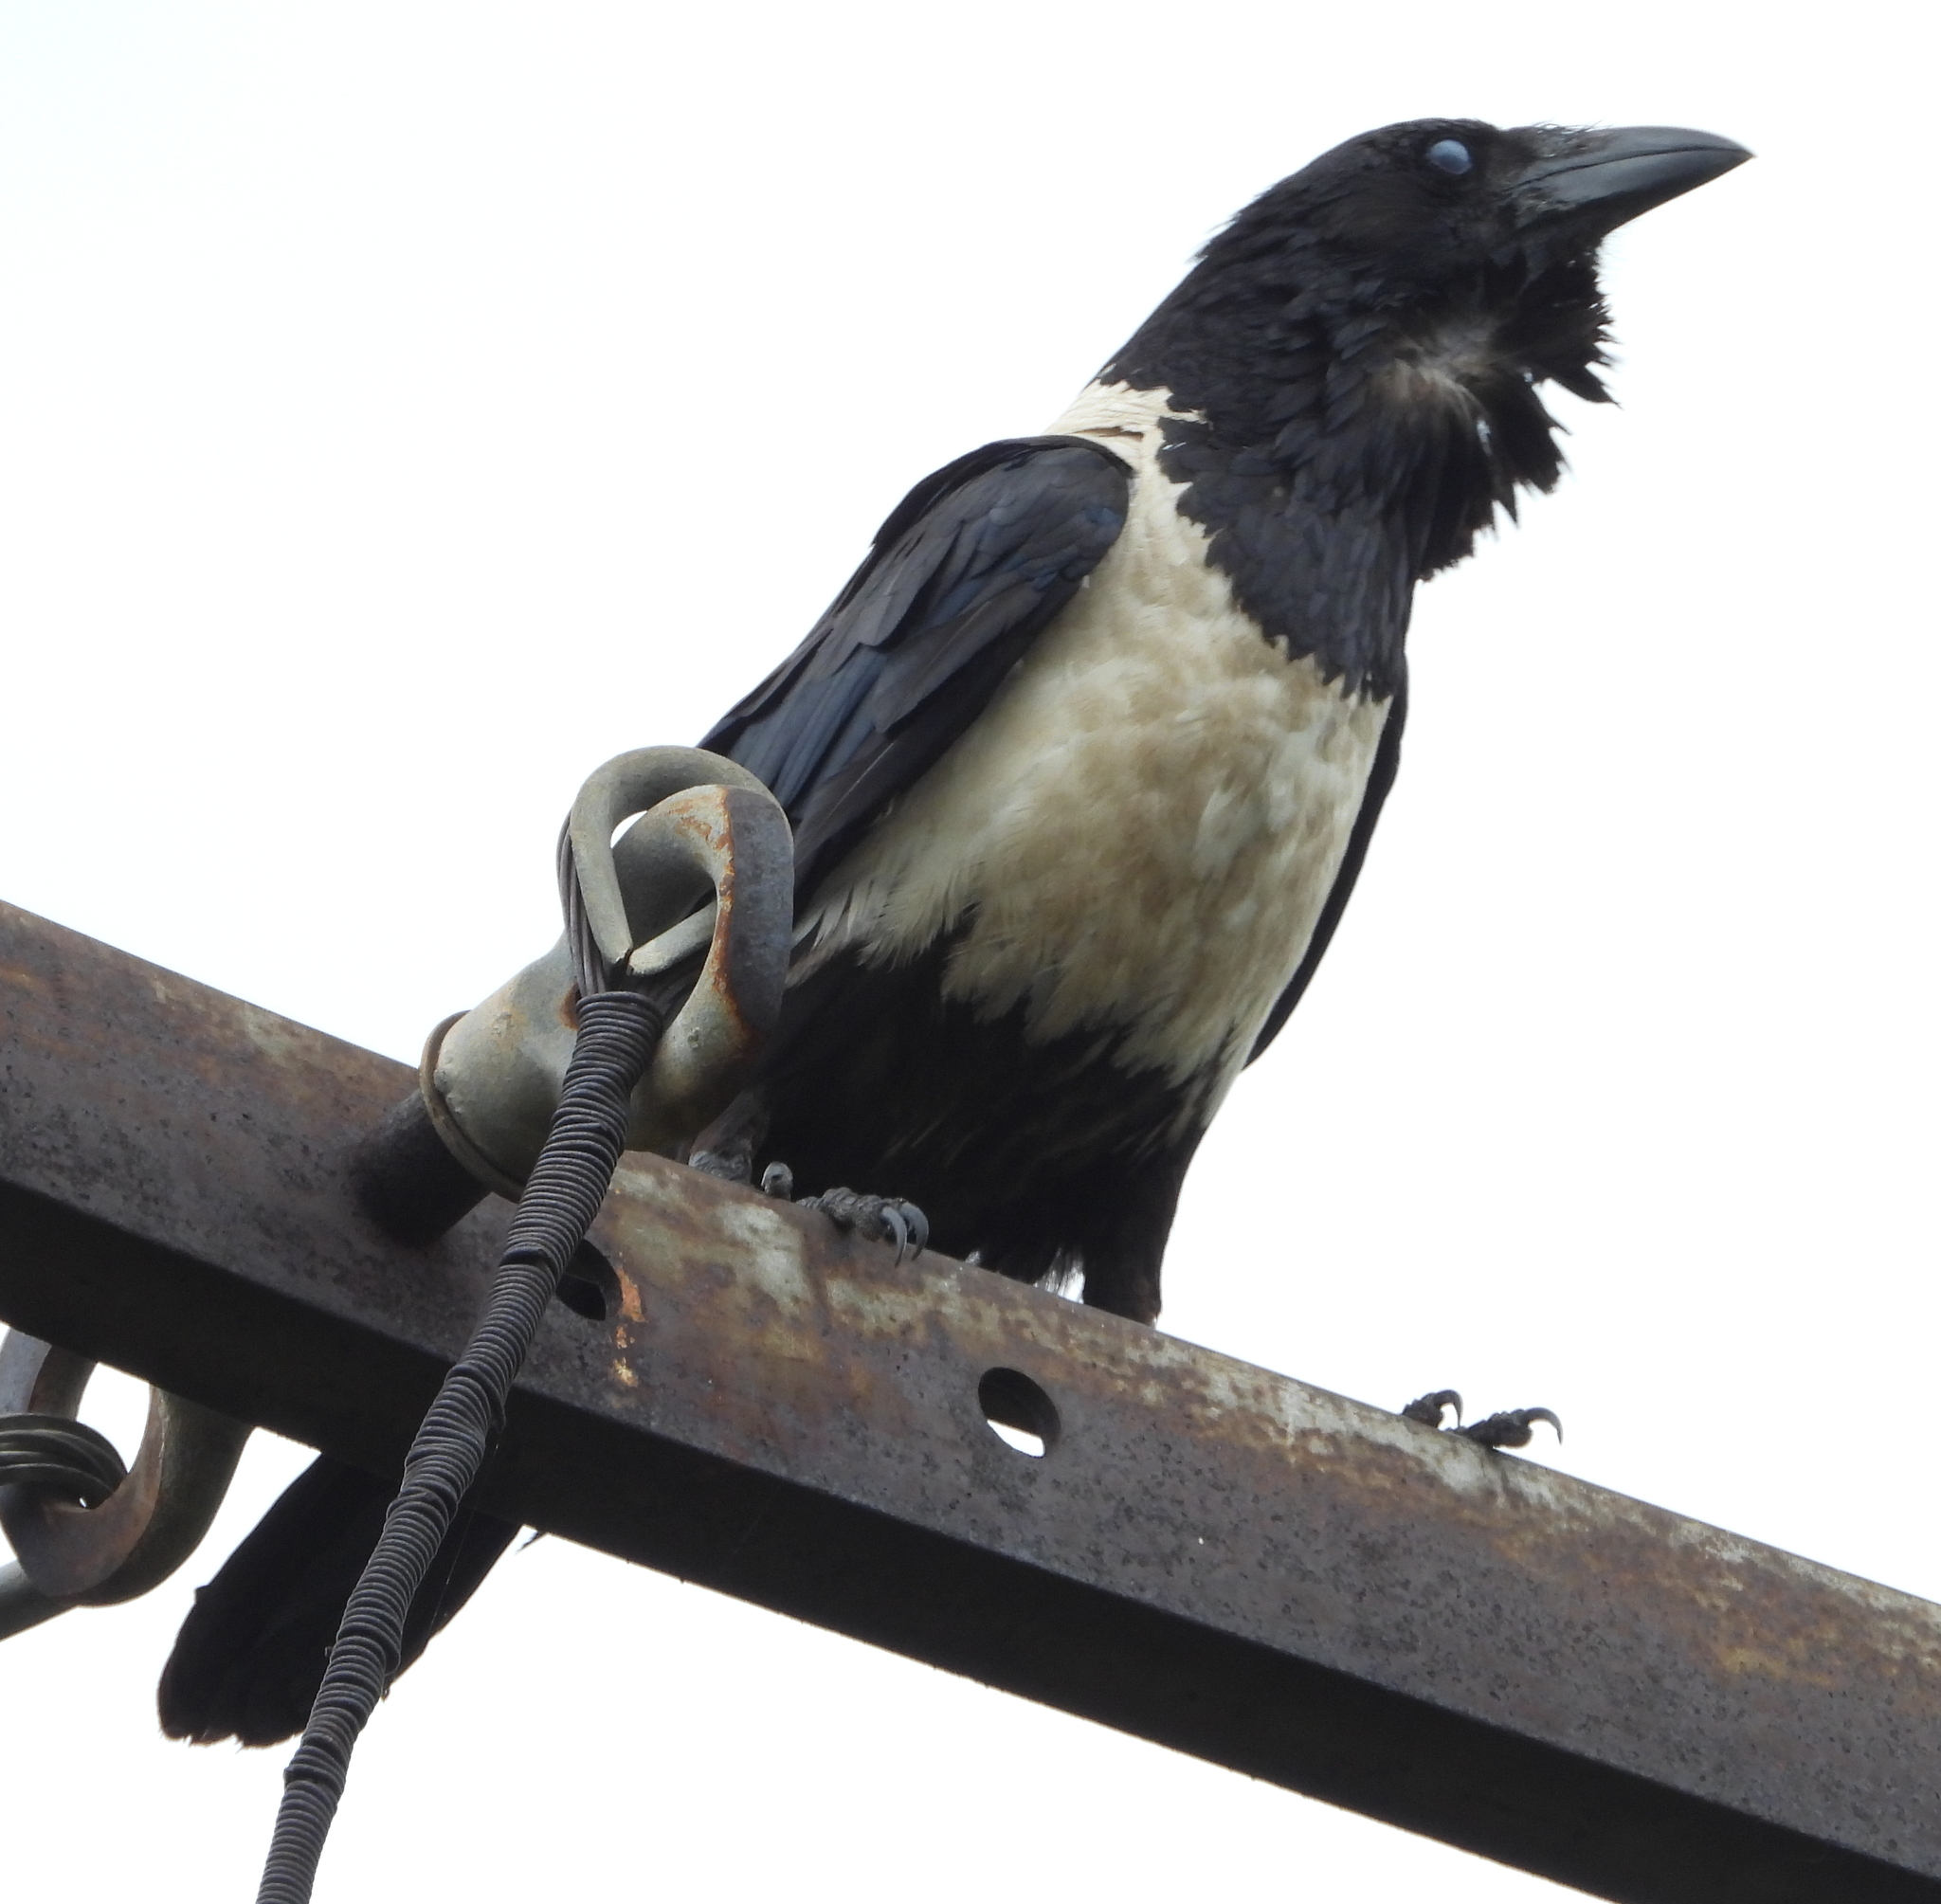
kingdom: Animalia
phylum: Chordata
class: Aves
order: Passeriformes
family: Corvidae
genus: Corvus
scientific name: Corvus albus
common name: Pied crow
